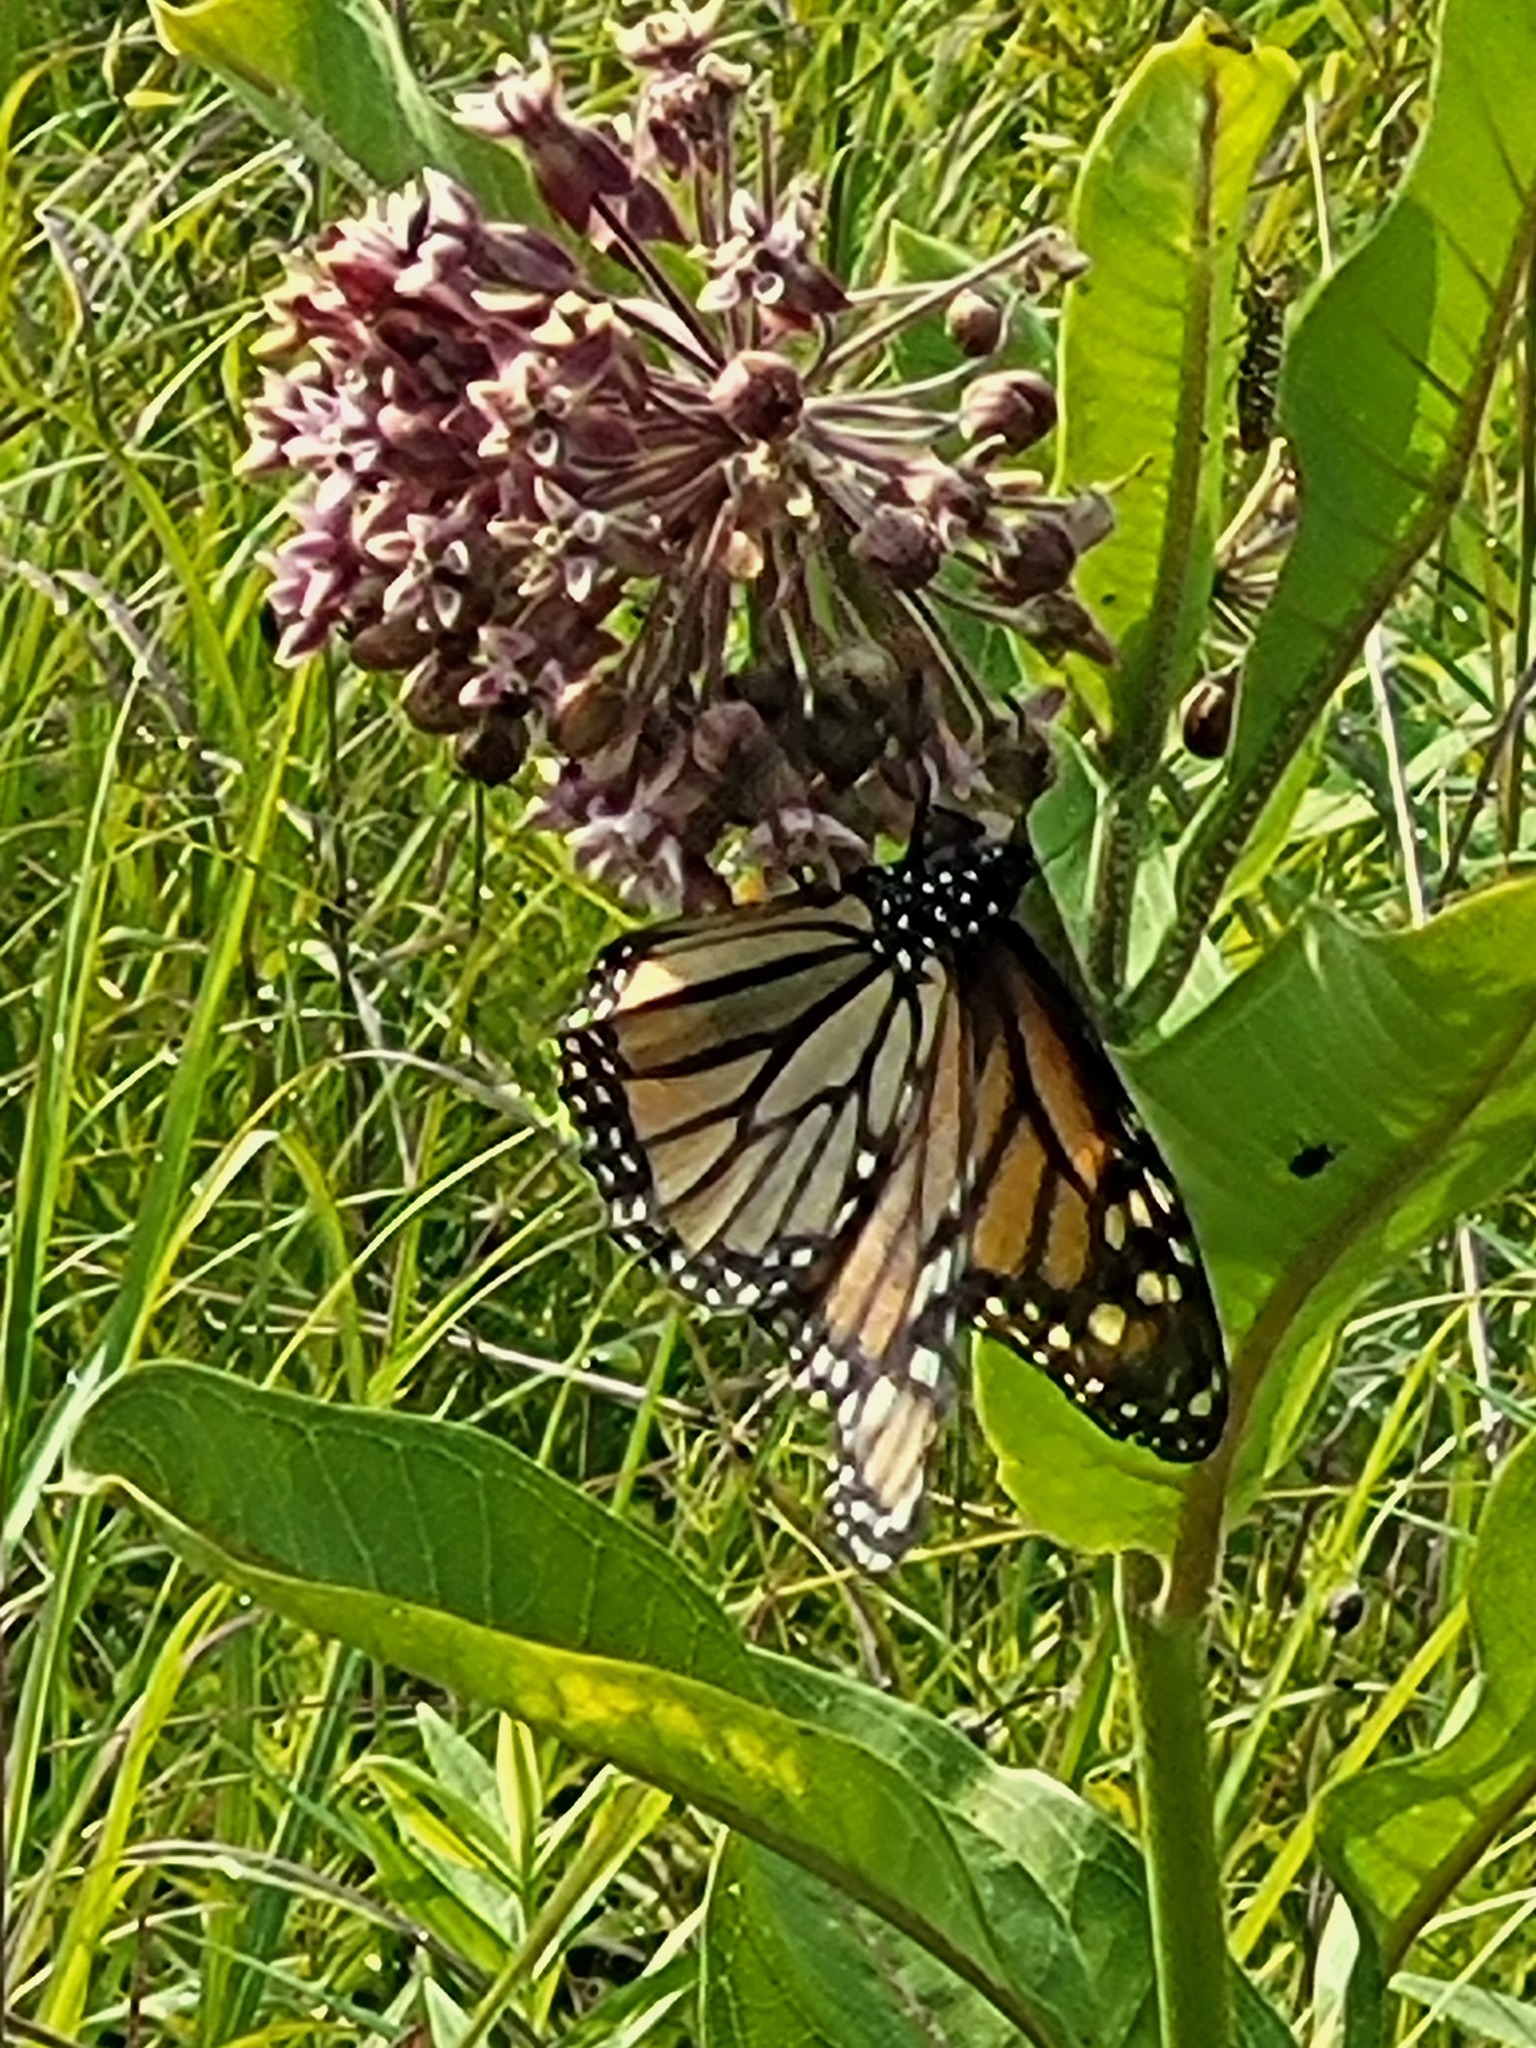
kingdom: Animalia
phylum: Arthropoda
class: Insecta
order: Lepidoptera
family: Nymphalidae
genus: Danaus
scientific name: Danaus plexippus
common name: Monarch
